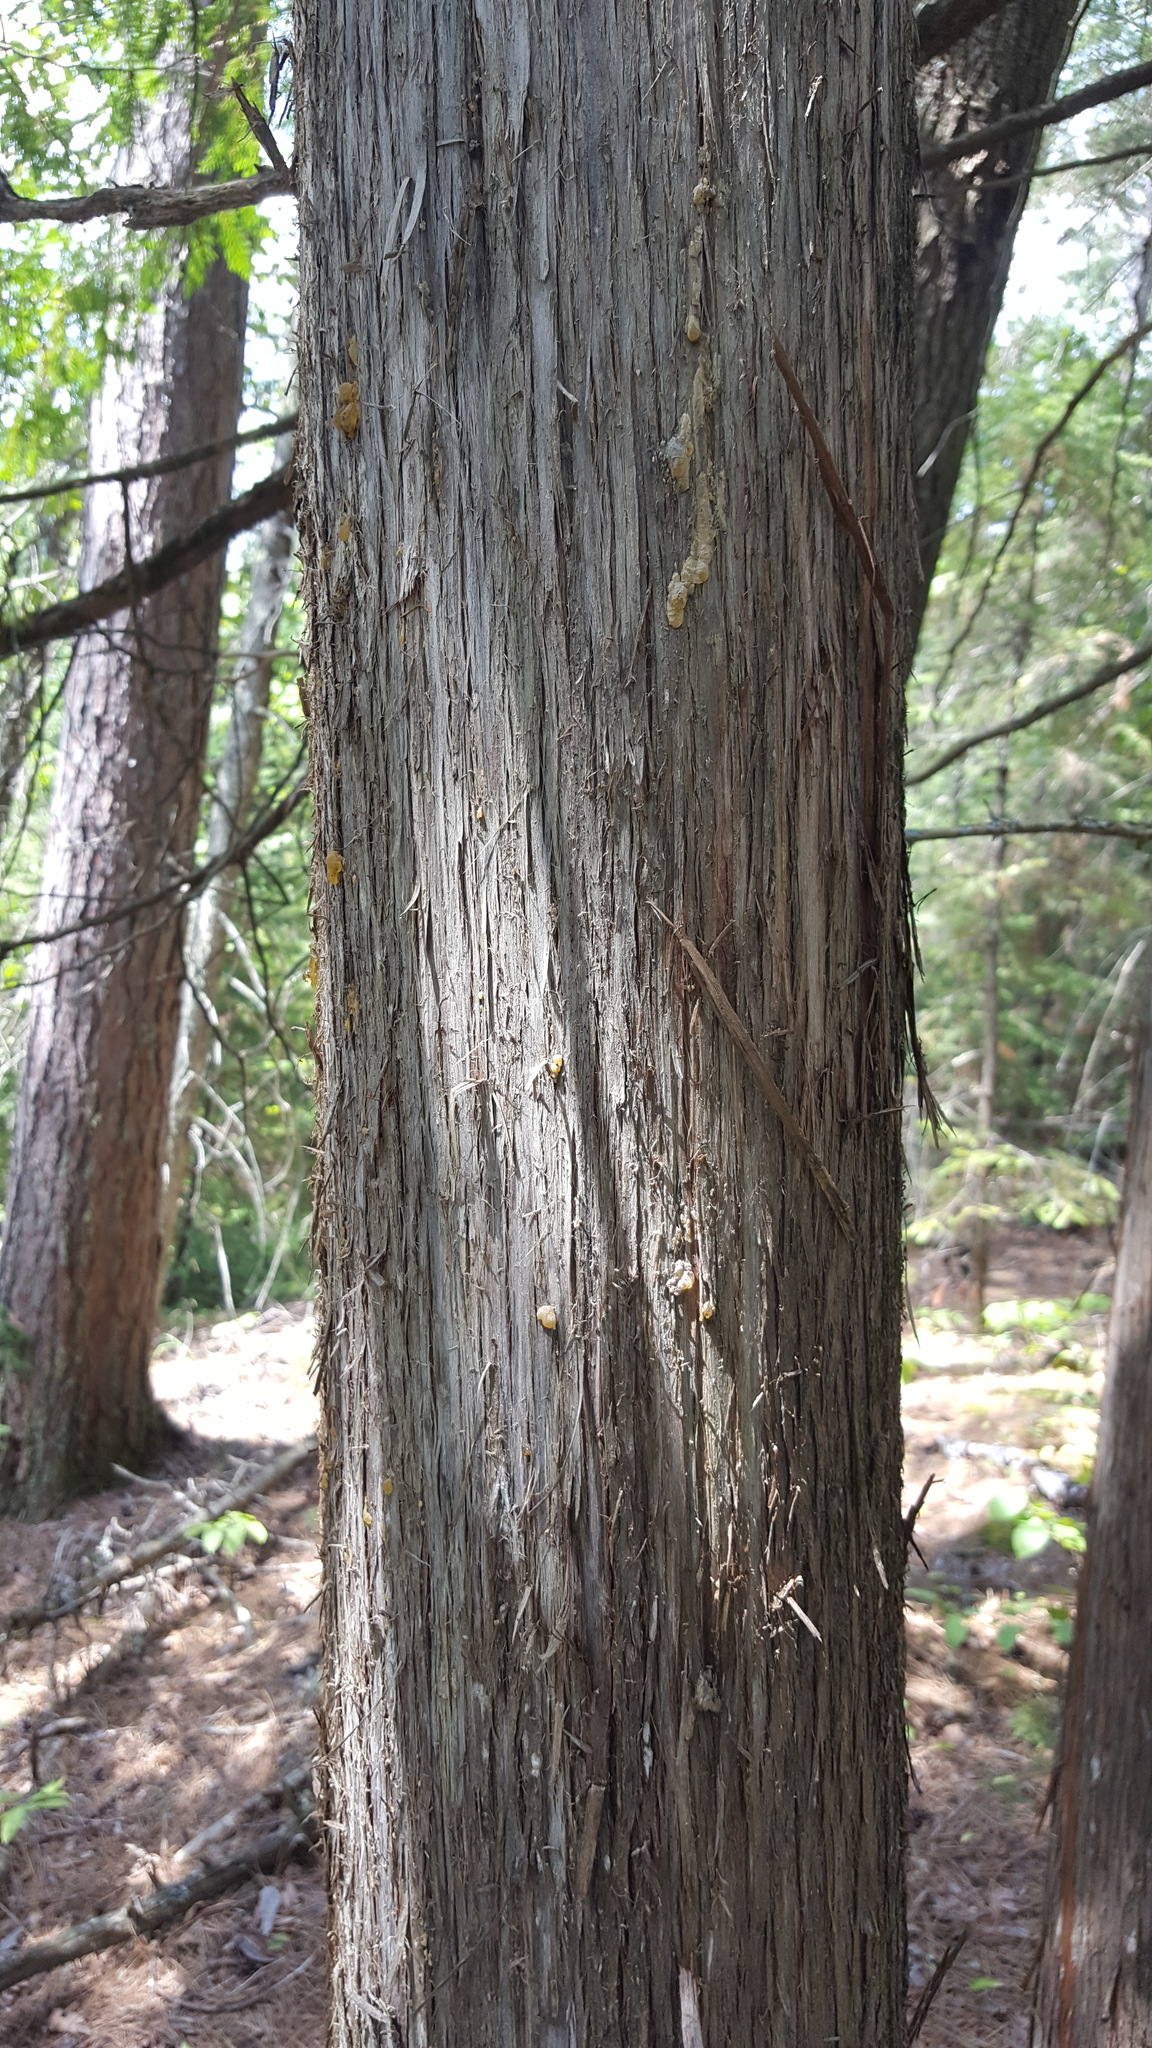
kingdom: Plantae
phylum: Tracheophyta
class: Pinopsida
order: Pinales
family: Cupressaceae
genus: Thuja
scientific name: Thuja occidentalis
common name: Northern white-cedar
